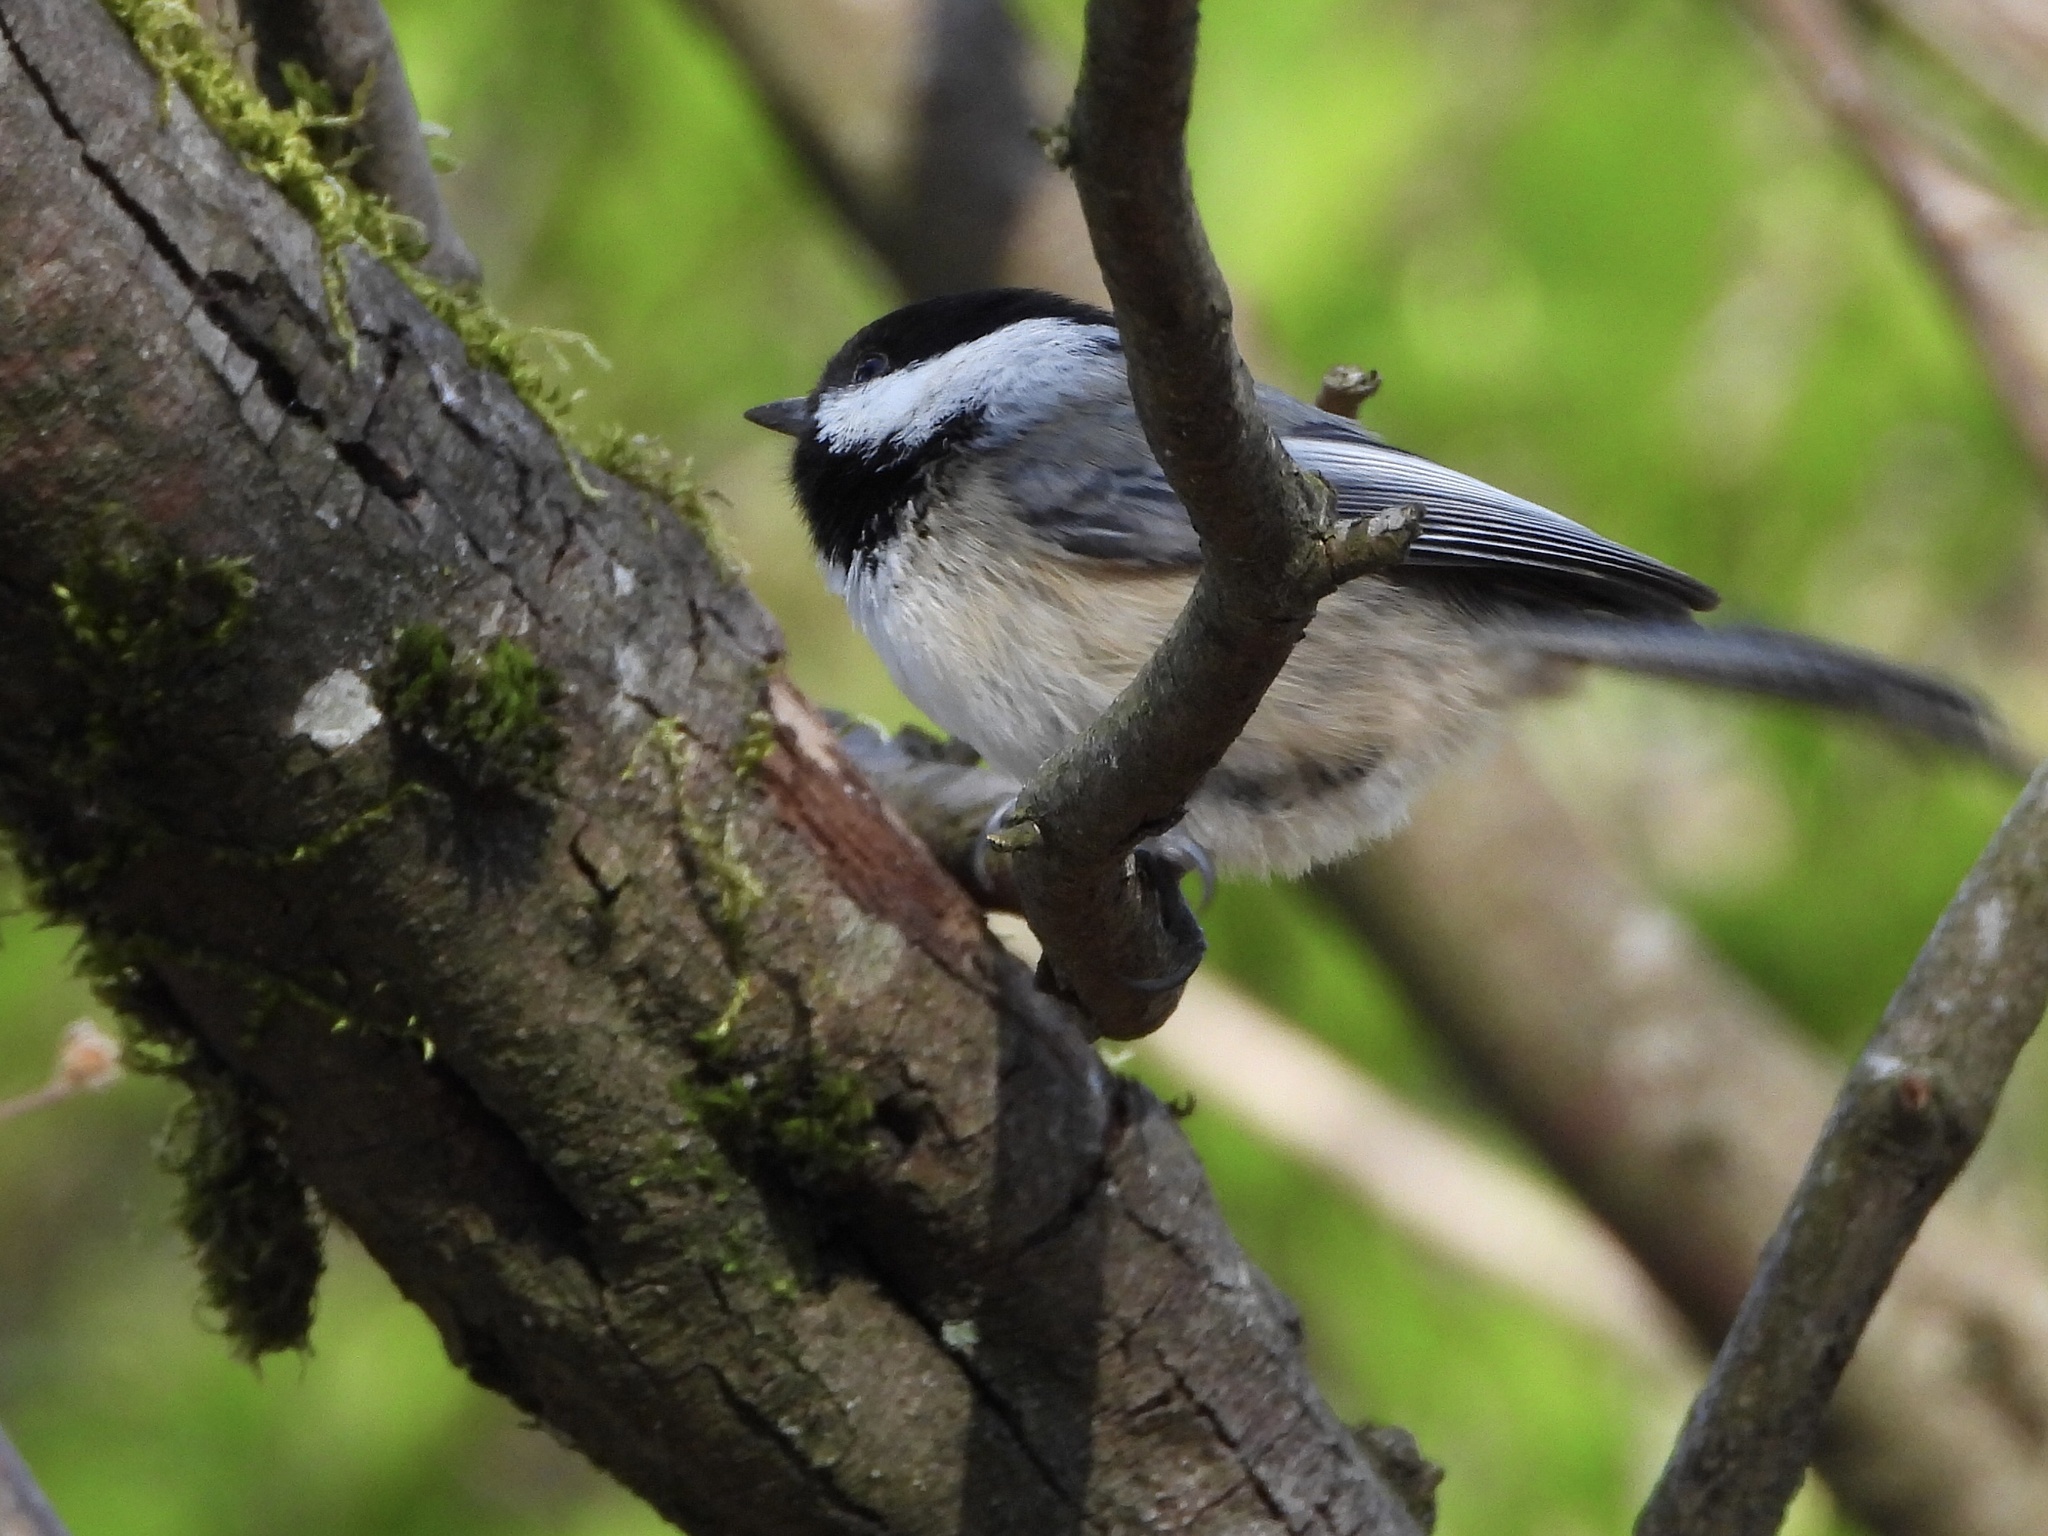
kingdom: Animalia
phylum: Chordata
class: Aves
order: Passeriformes
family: Paridae
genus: Poecile
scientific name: Poecile atricapillus
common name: Black-capped chickadee
